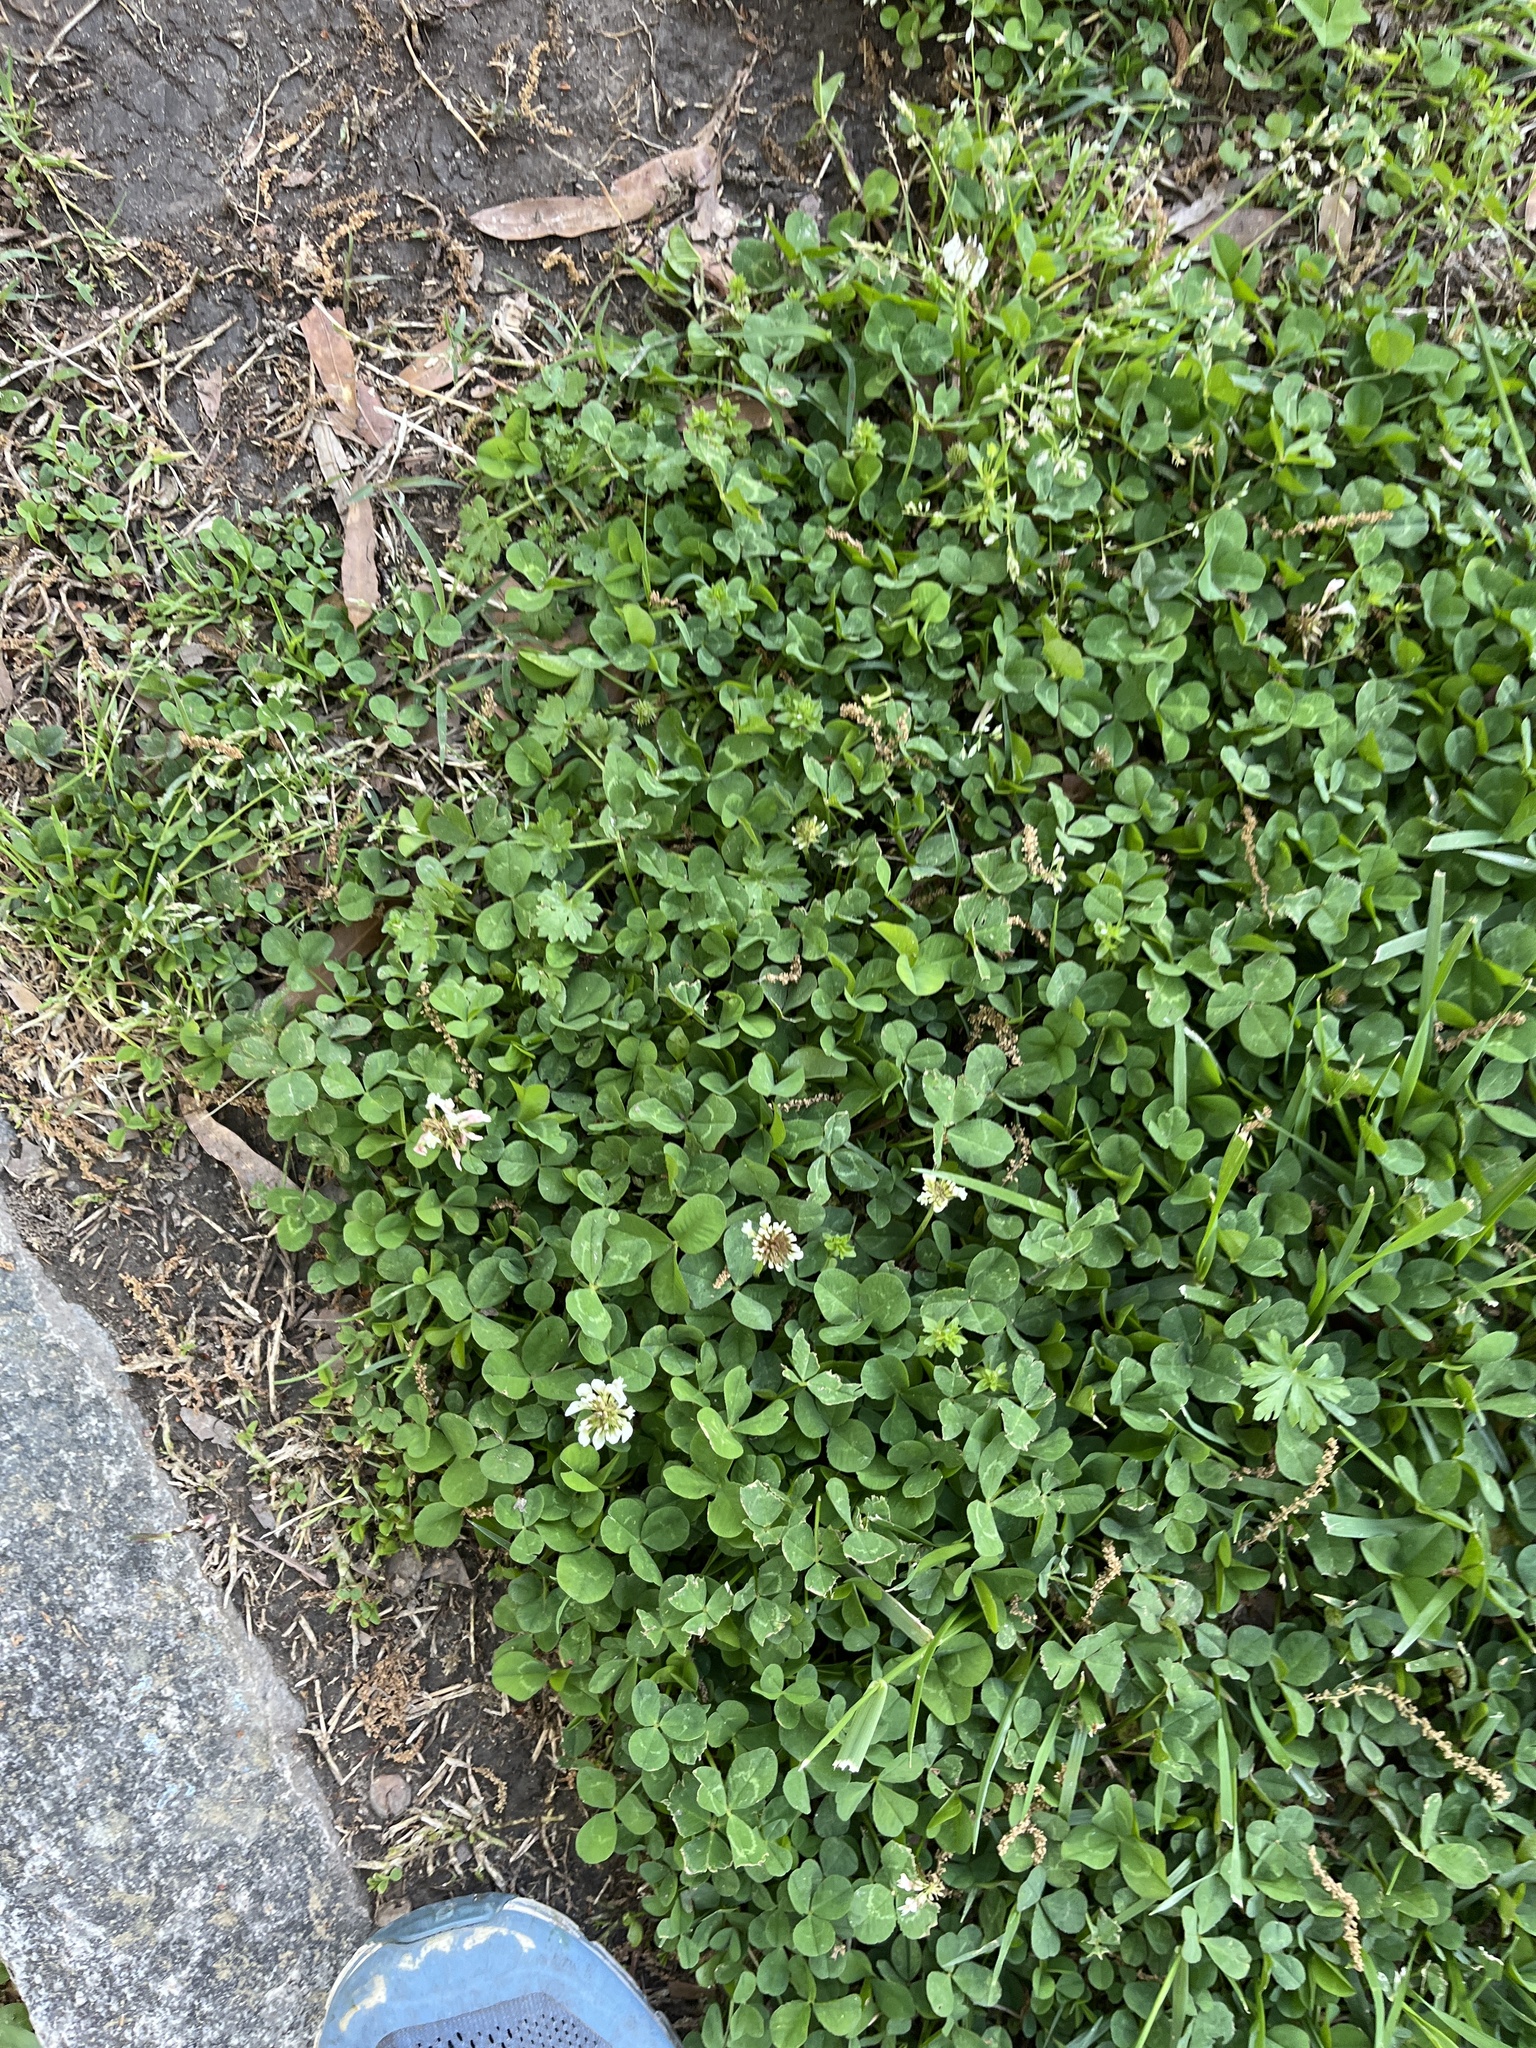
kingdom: Plantae
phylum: Tracheophyta
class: Magnoliopsida
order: Fabales
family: Fabaceae
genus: Trifolium
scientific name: Trifolium repens
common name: White clover
